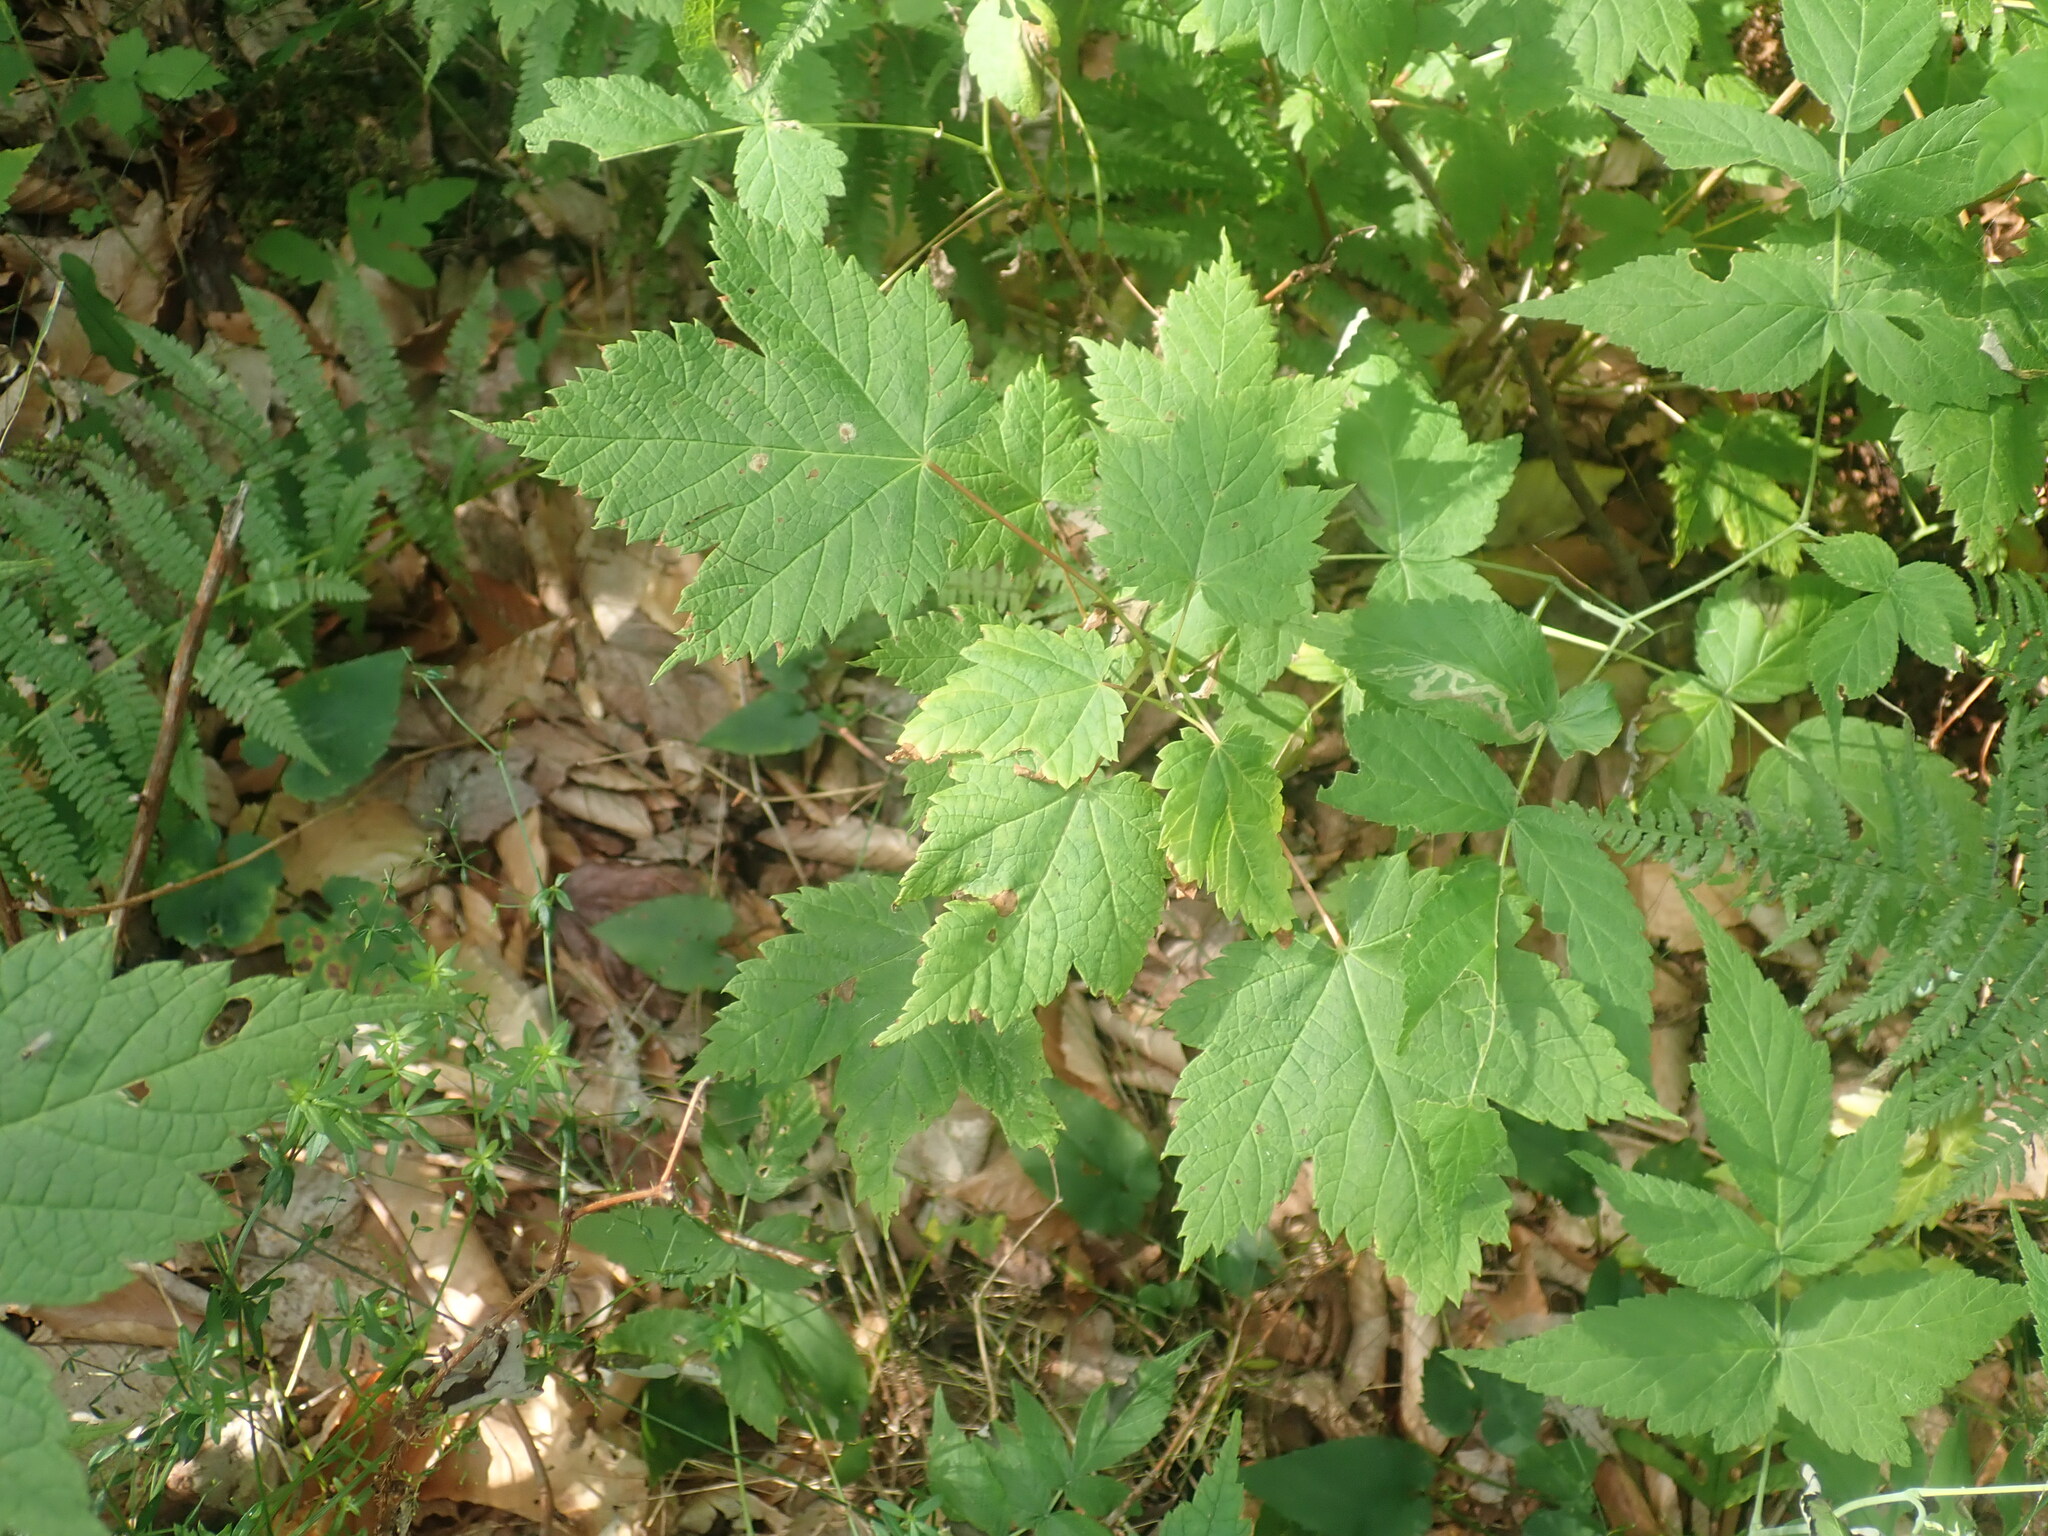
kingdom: Plantae
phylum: Tracheophyta
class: Magnoliopsida
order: Sapindales
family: Sapindaceae
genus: Acer
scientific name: Acer spicatum
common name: Mountain maple
